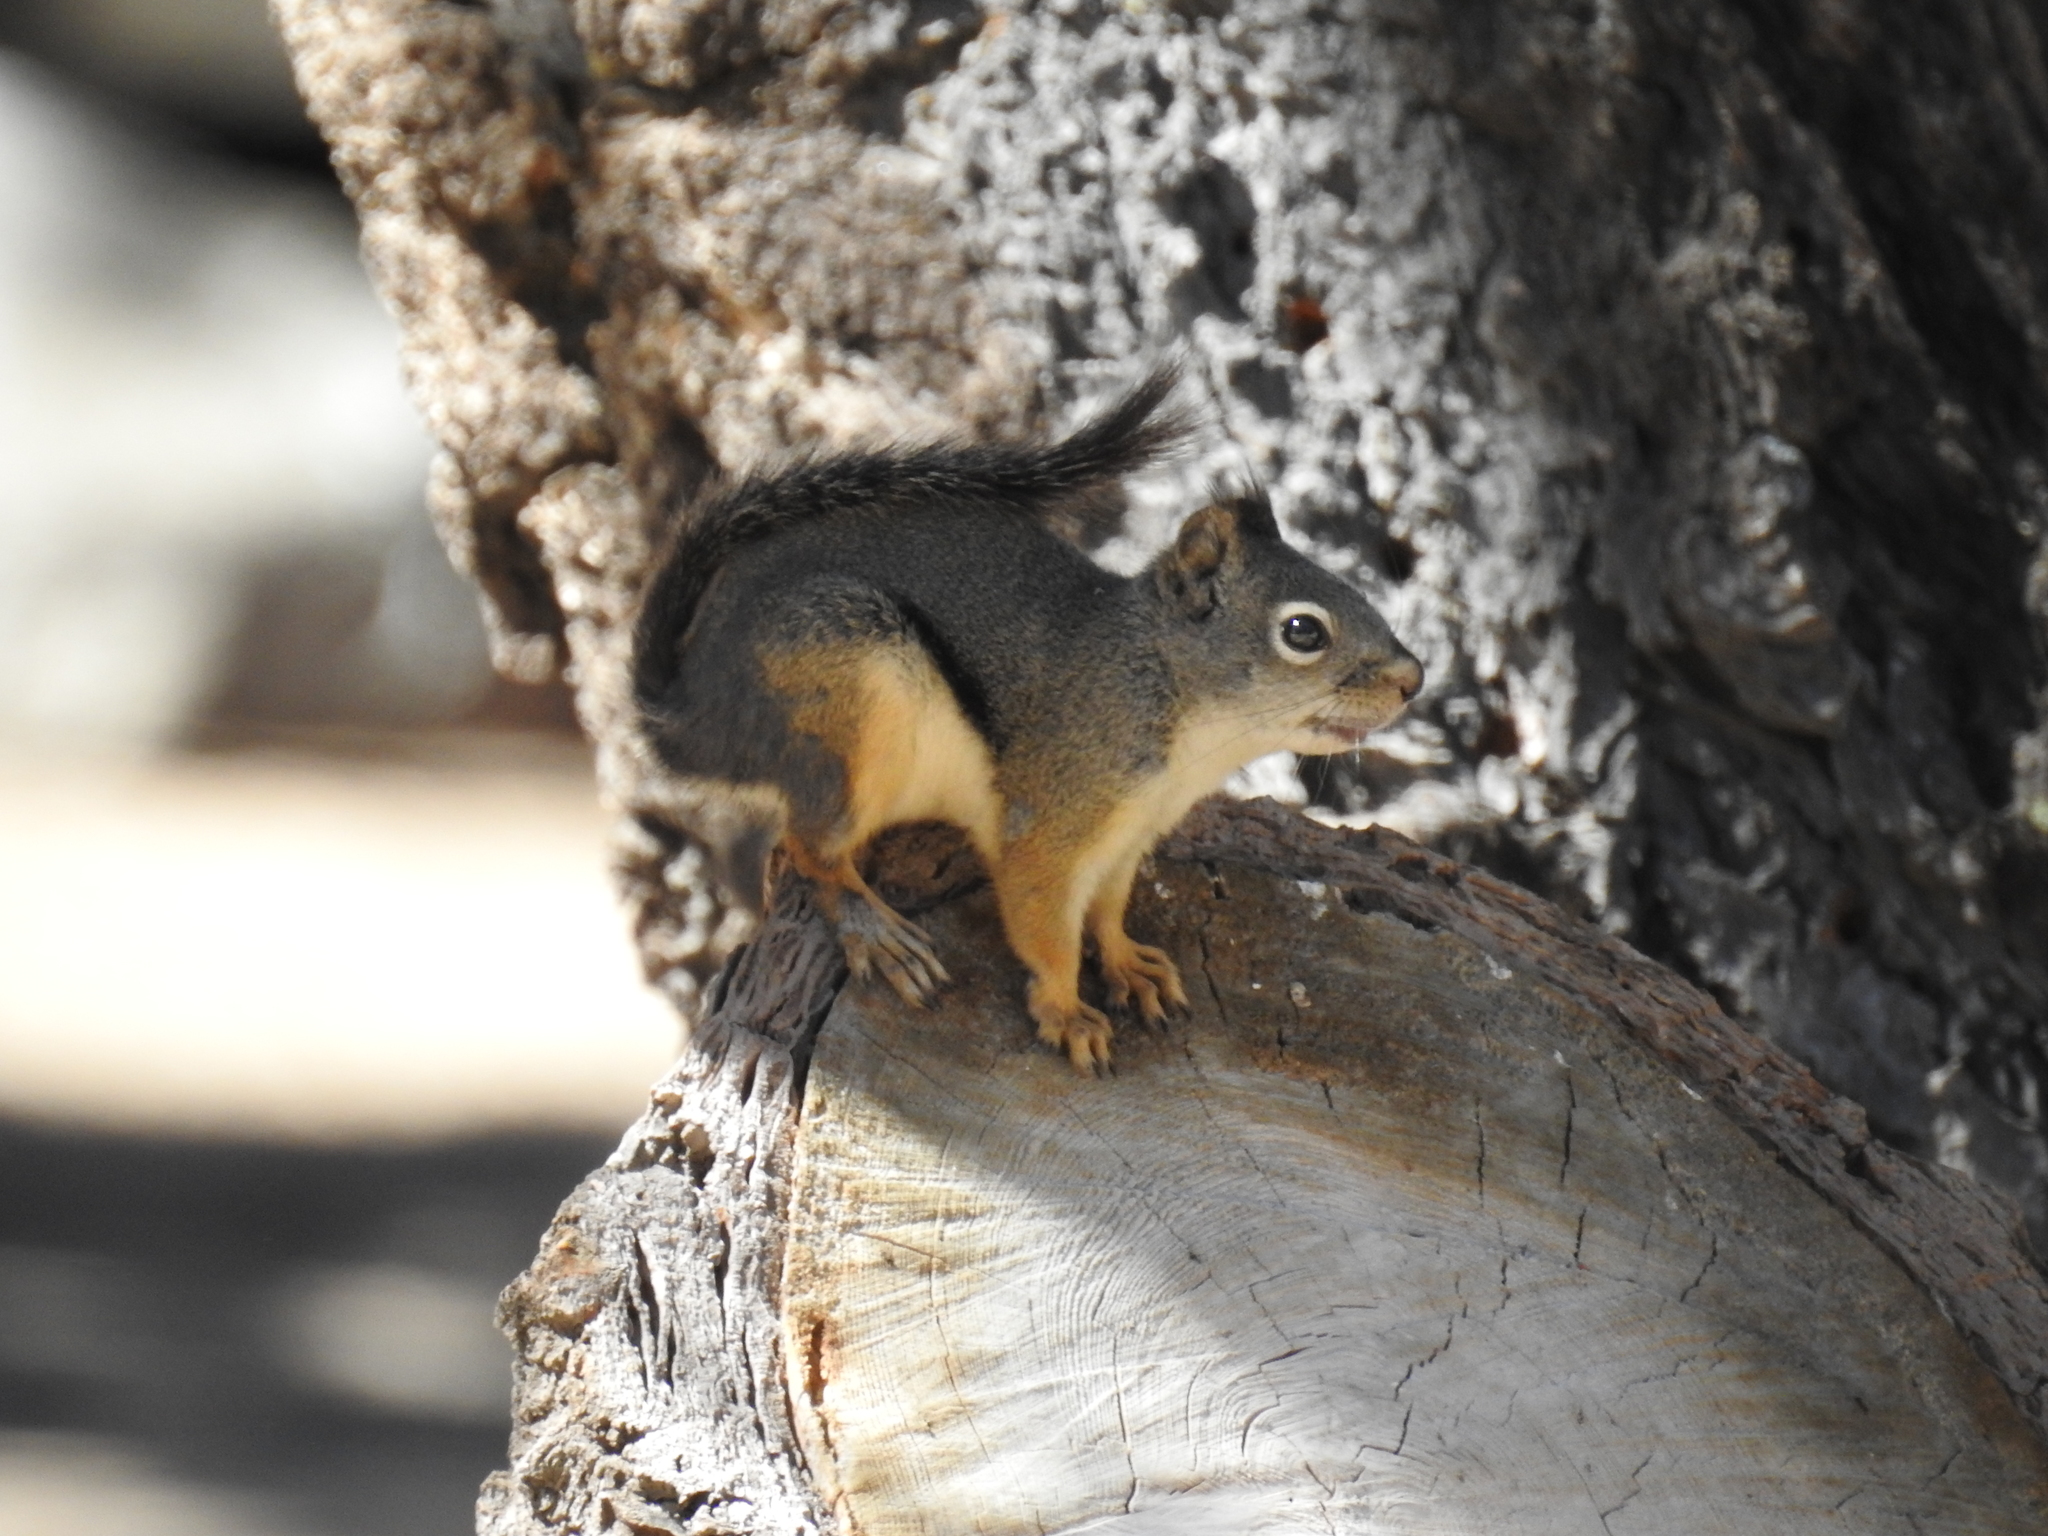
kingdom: Animalia
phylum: Chordata
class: Mammalia
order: Rodentia
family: Sciuridae
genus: Tamiasciurus
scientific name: Tamiasciurus douglasii
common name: Douglas's squirrel
